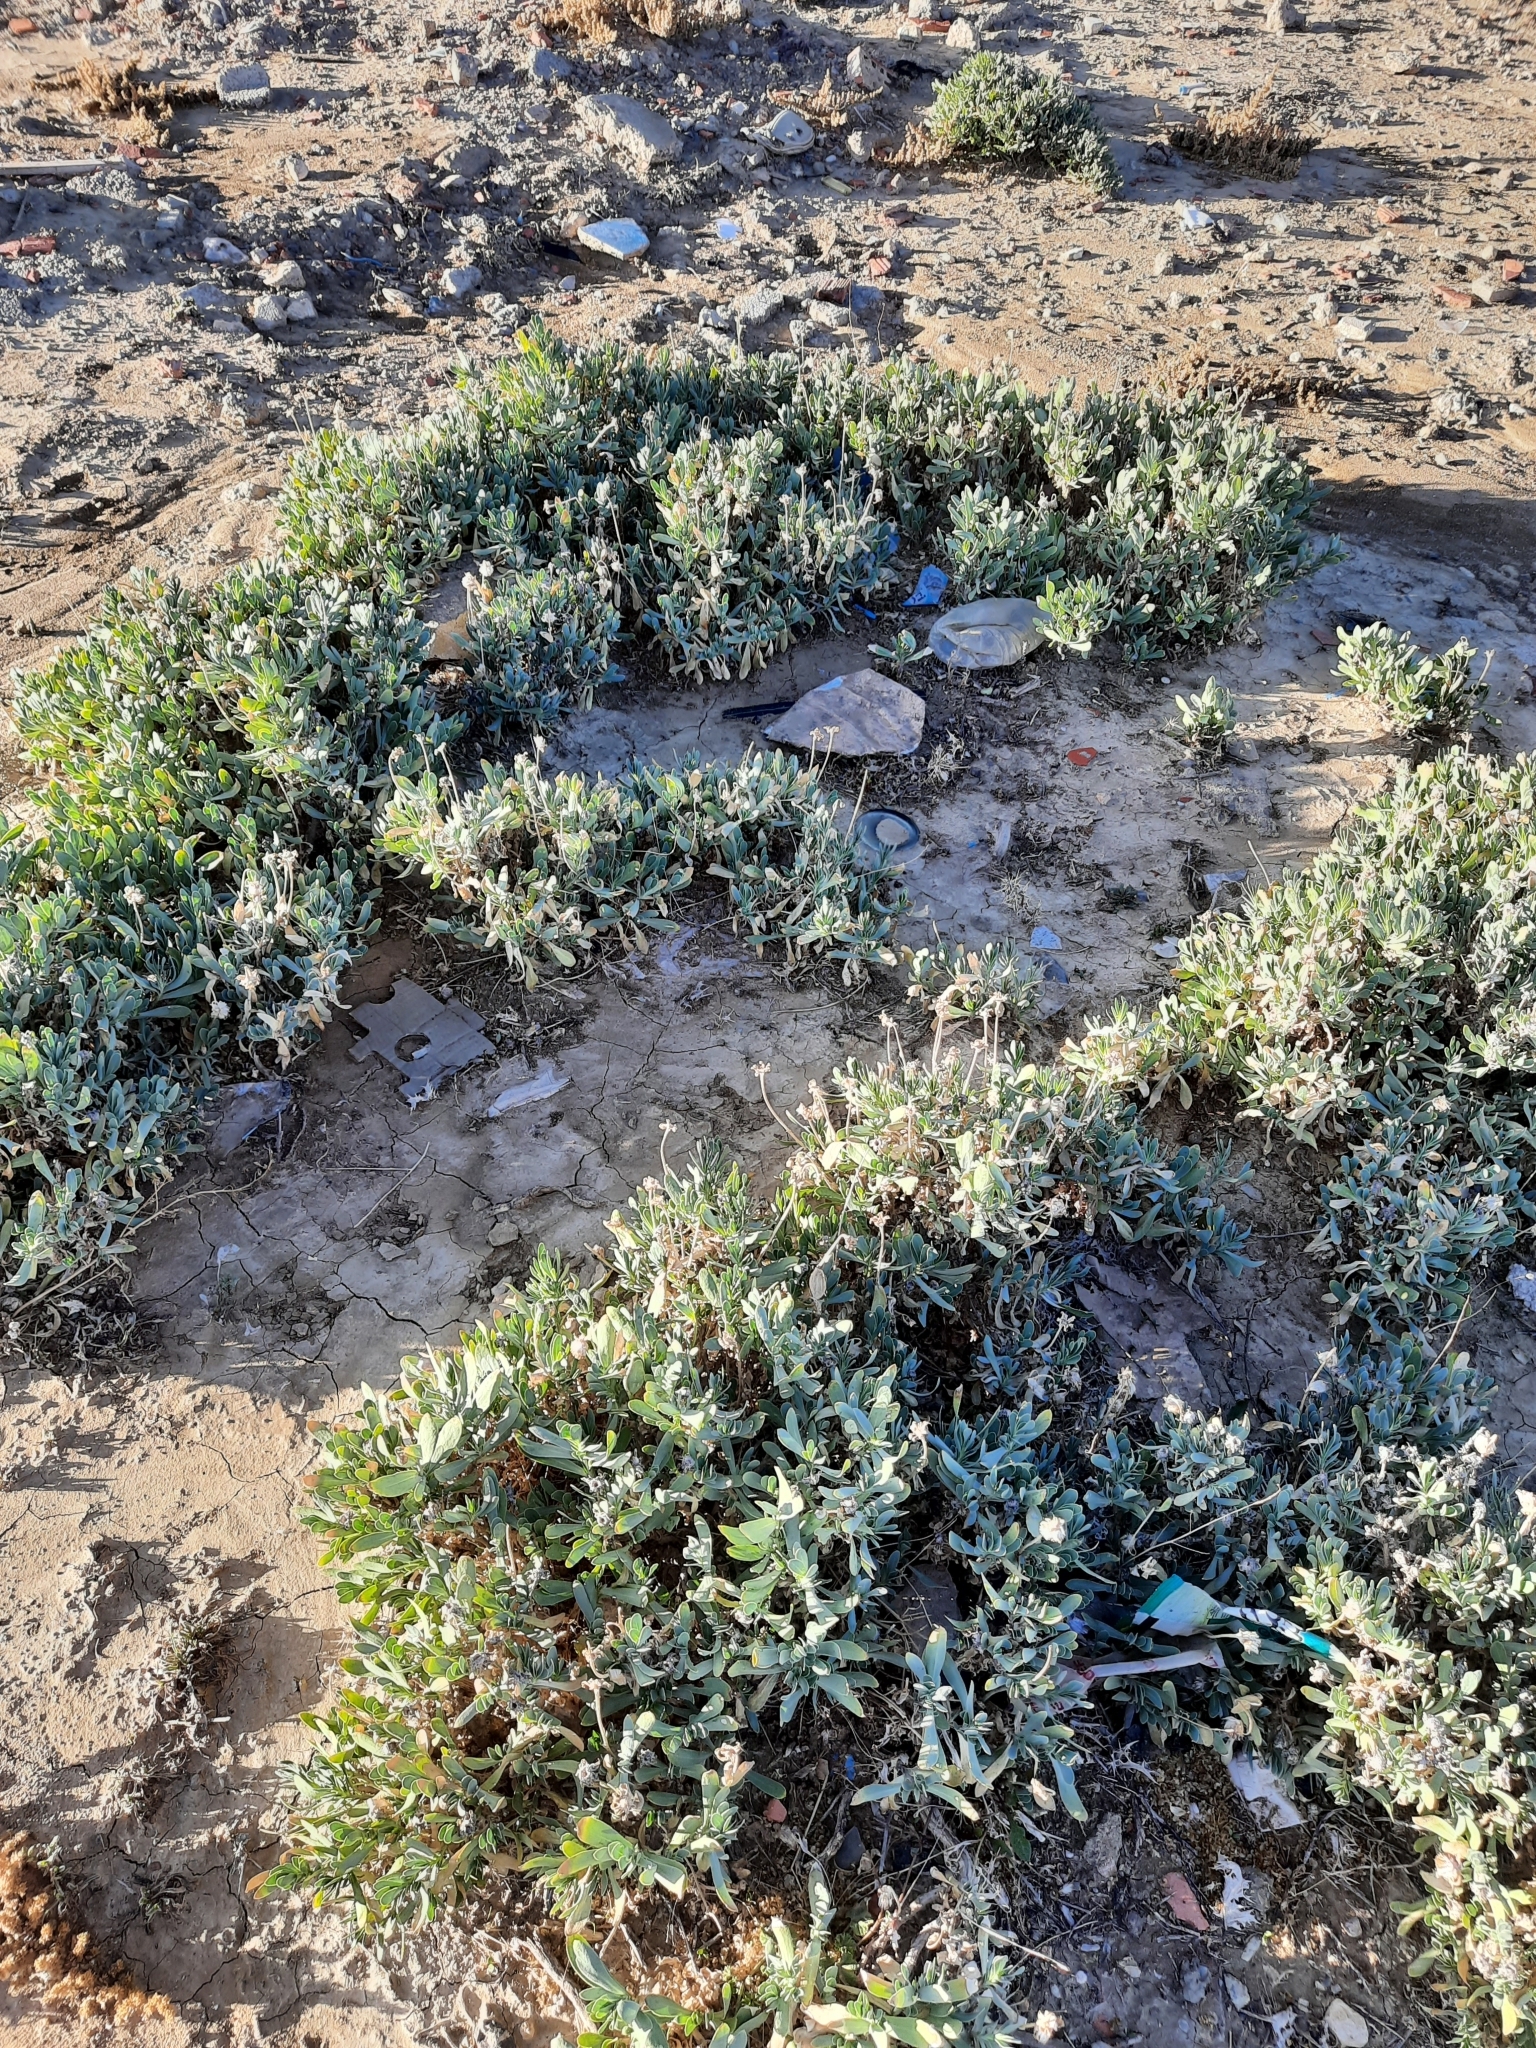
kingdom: Plantae
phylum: Tracheophyta
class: Magnoliopsida
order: Asterales
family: Asteraceae
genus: Hertia
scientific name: Hertia cheirifolia
